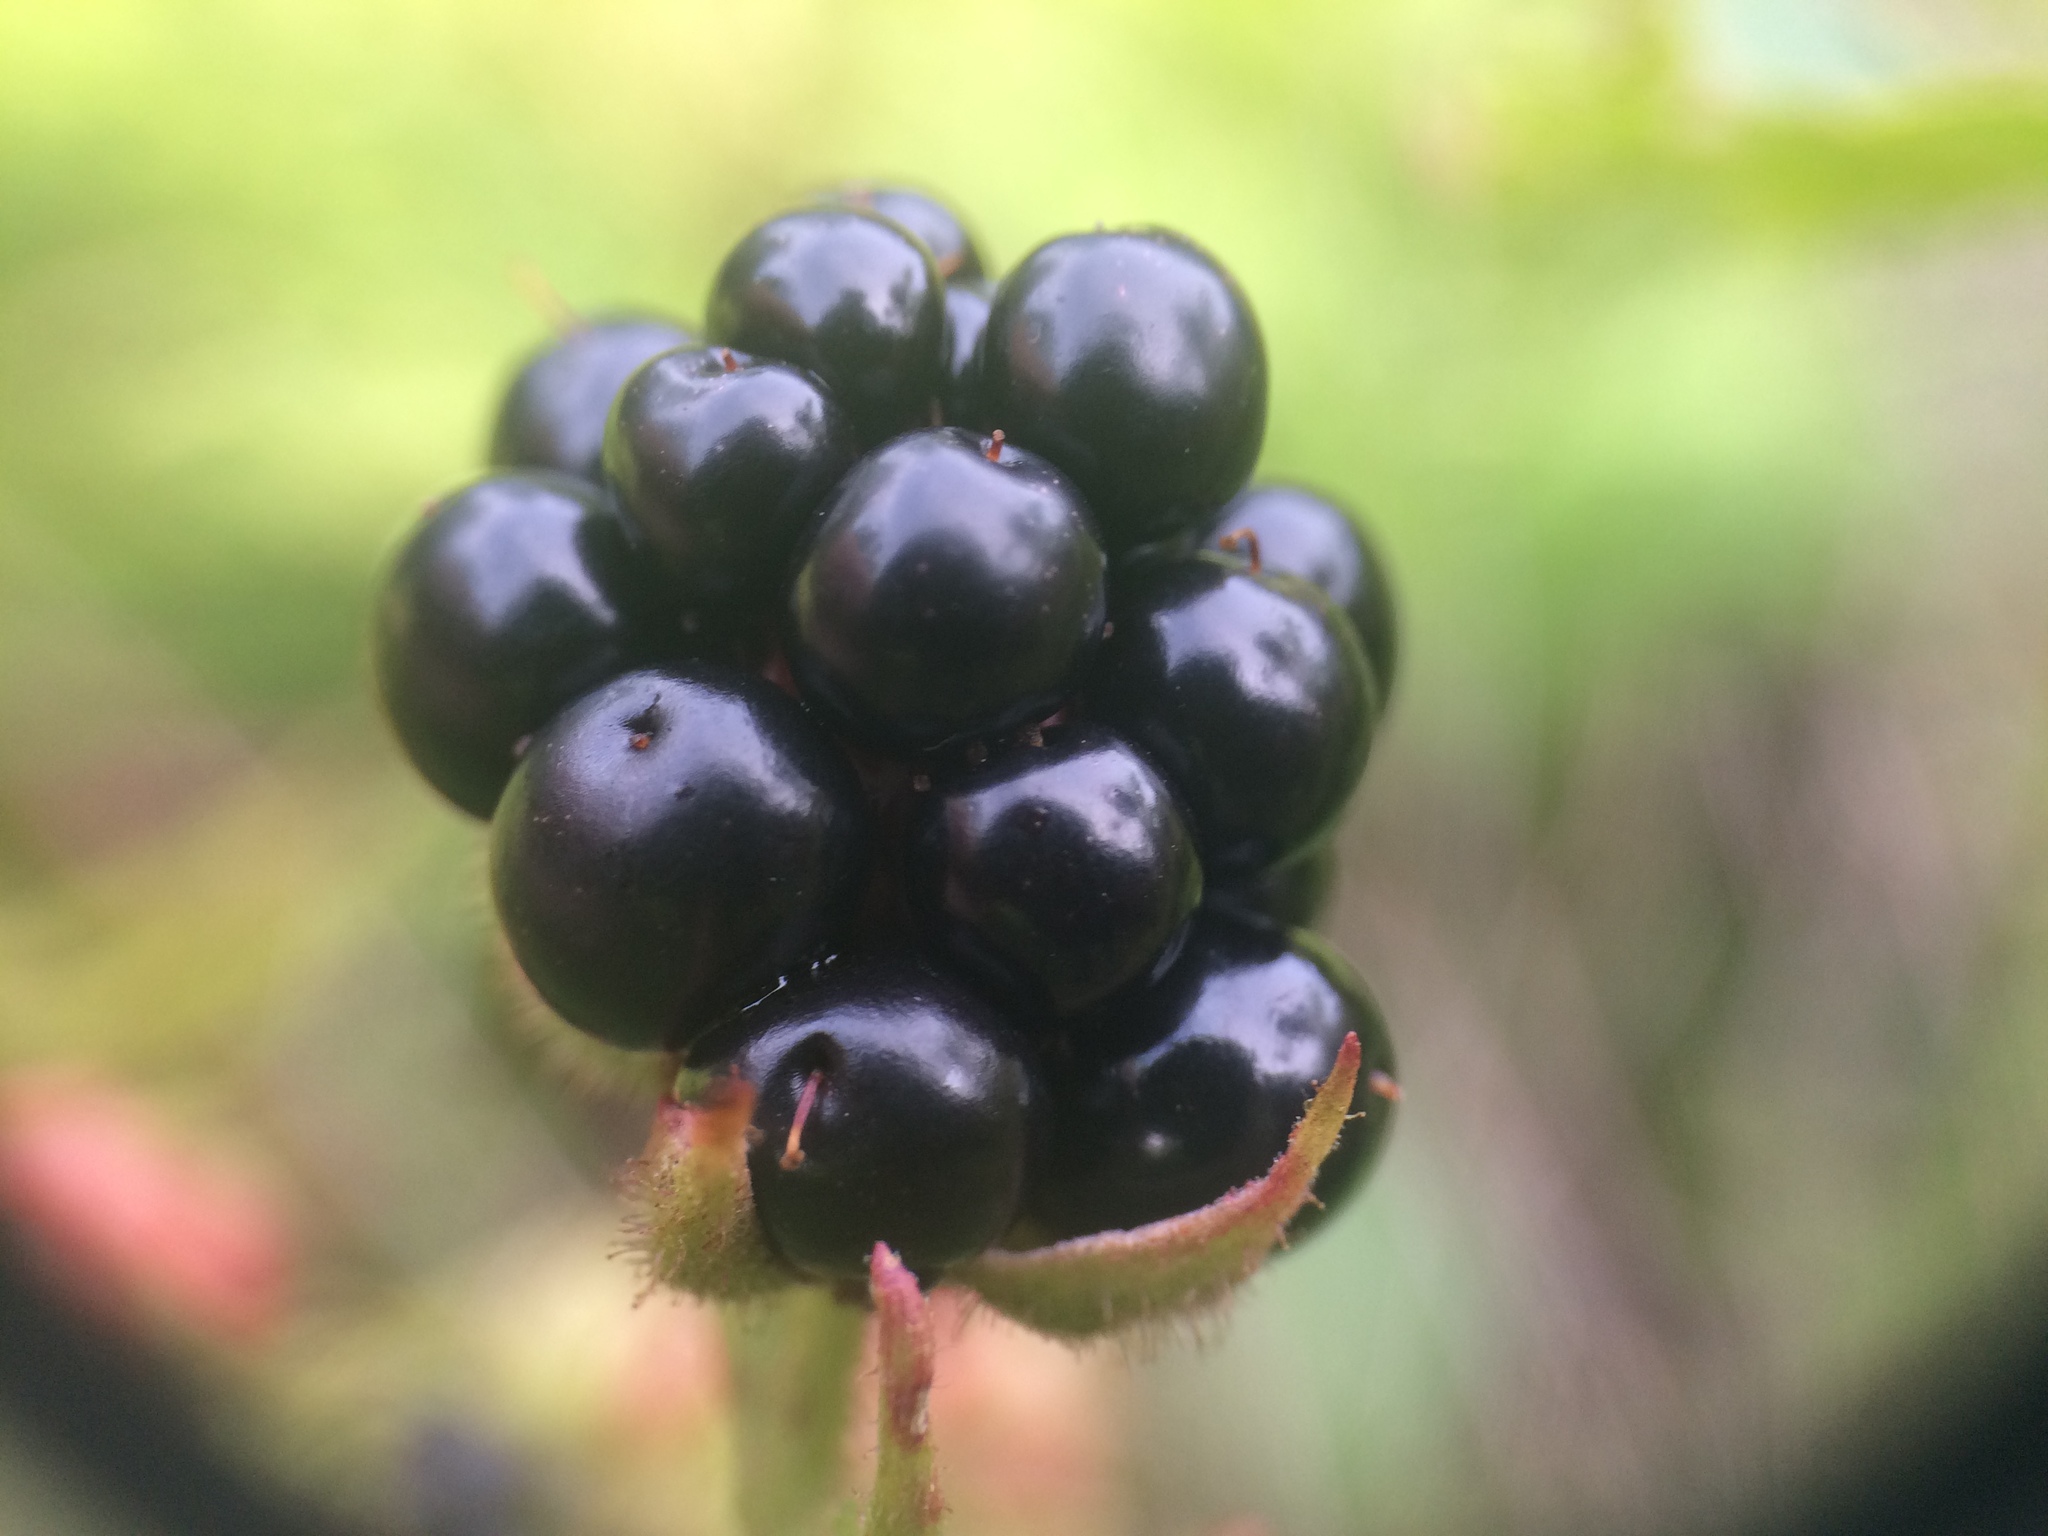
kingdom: Plantae
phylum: Tracheophyta
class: Magnoliopsida
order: Rosales
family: Rosaceae
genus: Rubus
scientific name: Rubus allegheniensis
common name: Allegheny blackberry
